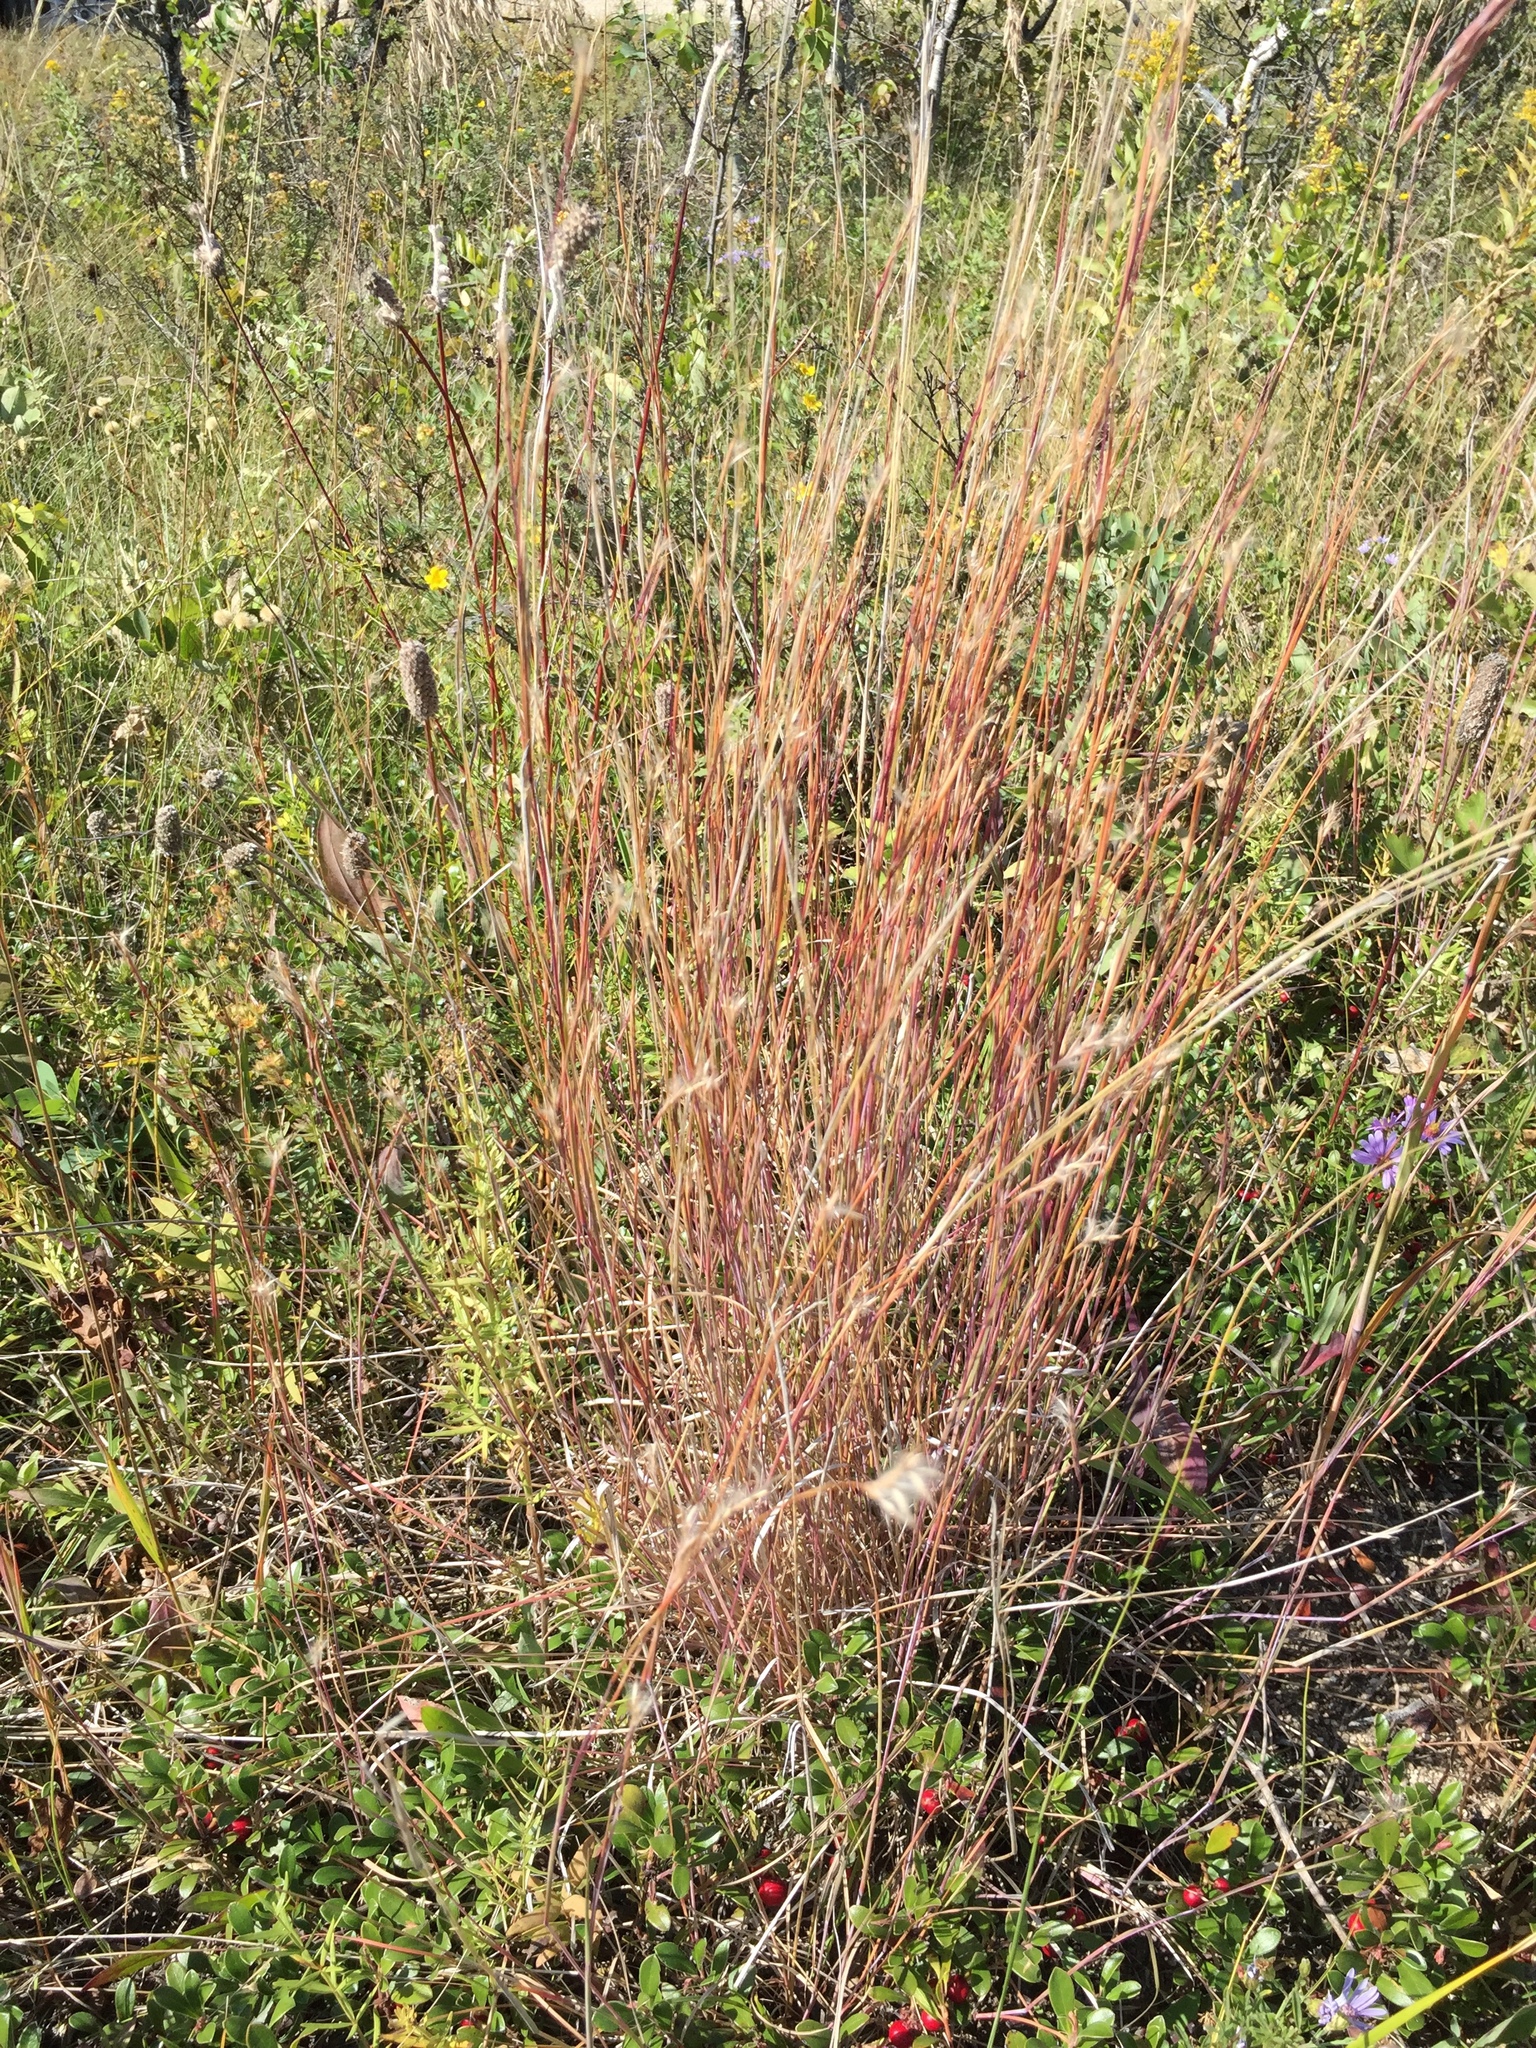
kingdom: Plantae
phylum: Tracheophyta
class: Liliopsida
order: Poales
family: Poaceae
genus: Schizachyrium
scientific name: Schizachyrium scoparium
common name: Little bluestem
